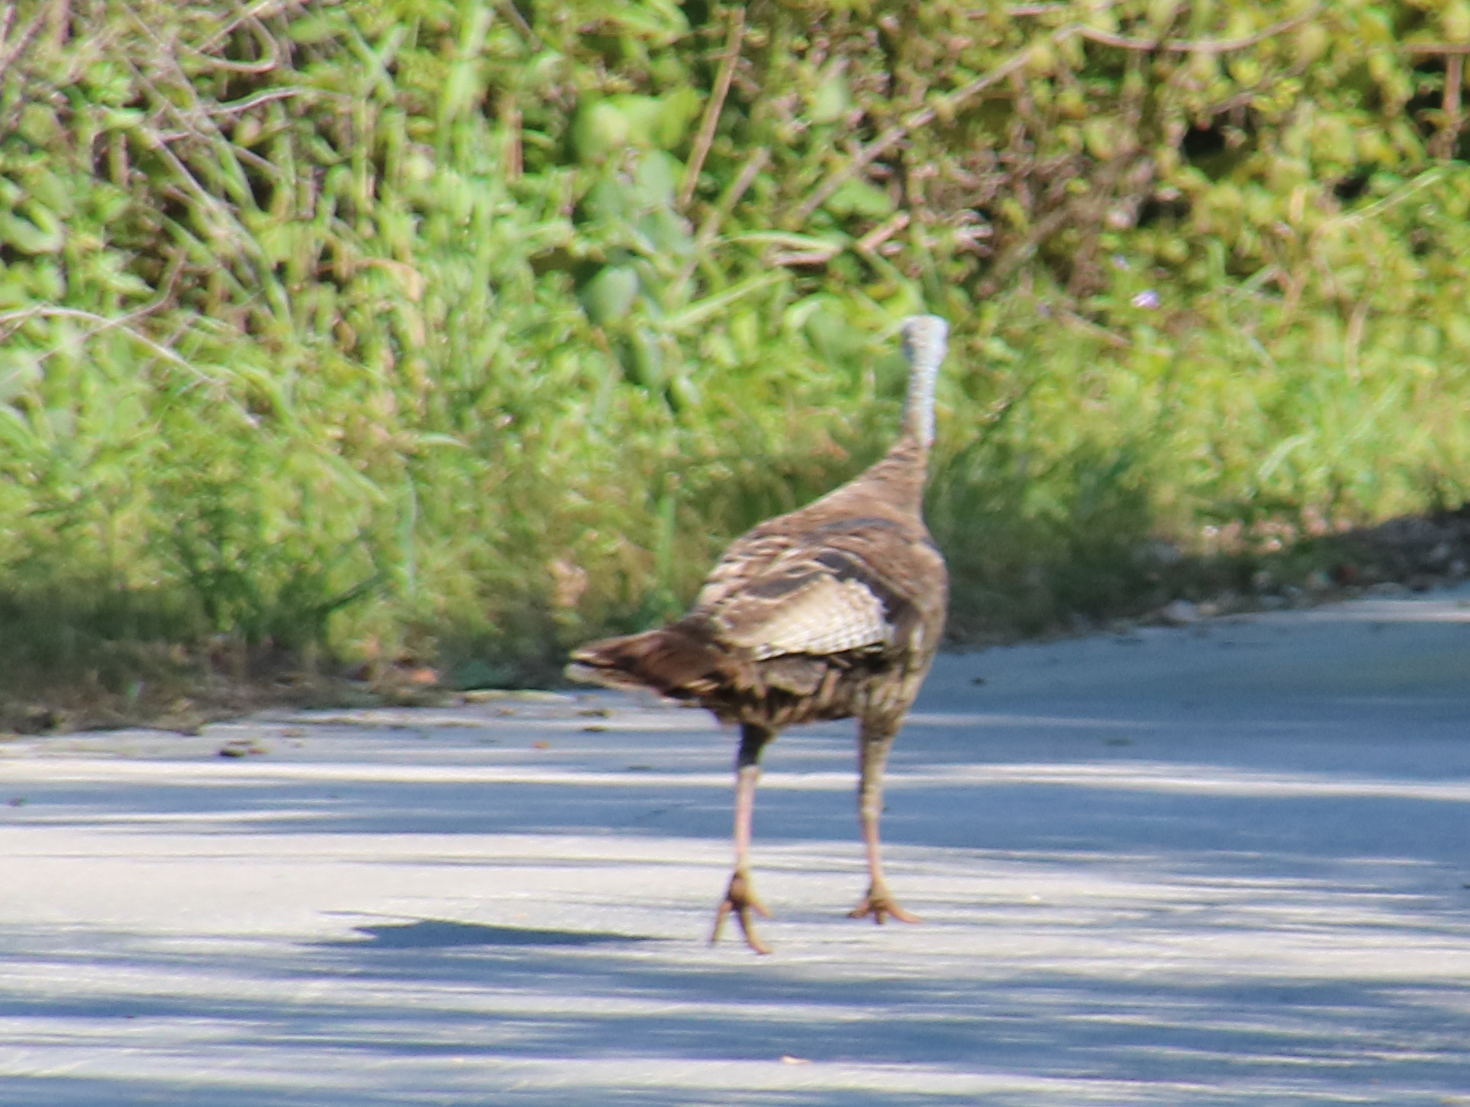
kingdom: Animalia
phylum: Chordata
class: Aves
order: Galliformes
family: Phasianidae
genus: Meleagris
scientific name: Meleagris gallopavo
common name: Wild turkey
